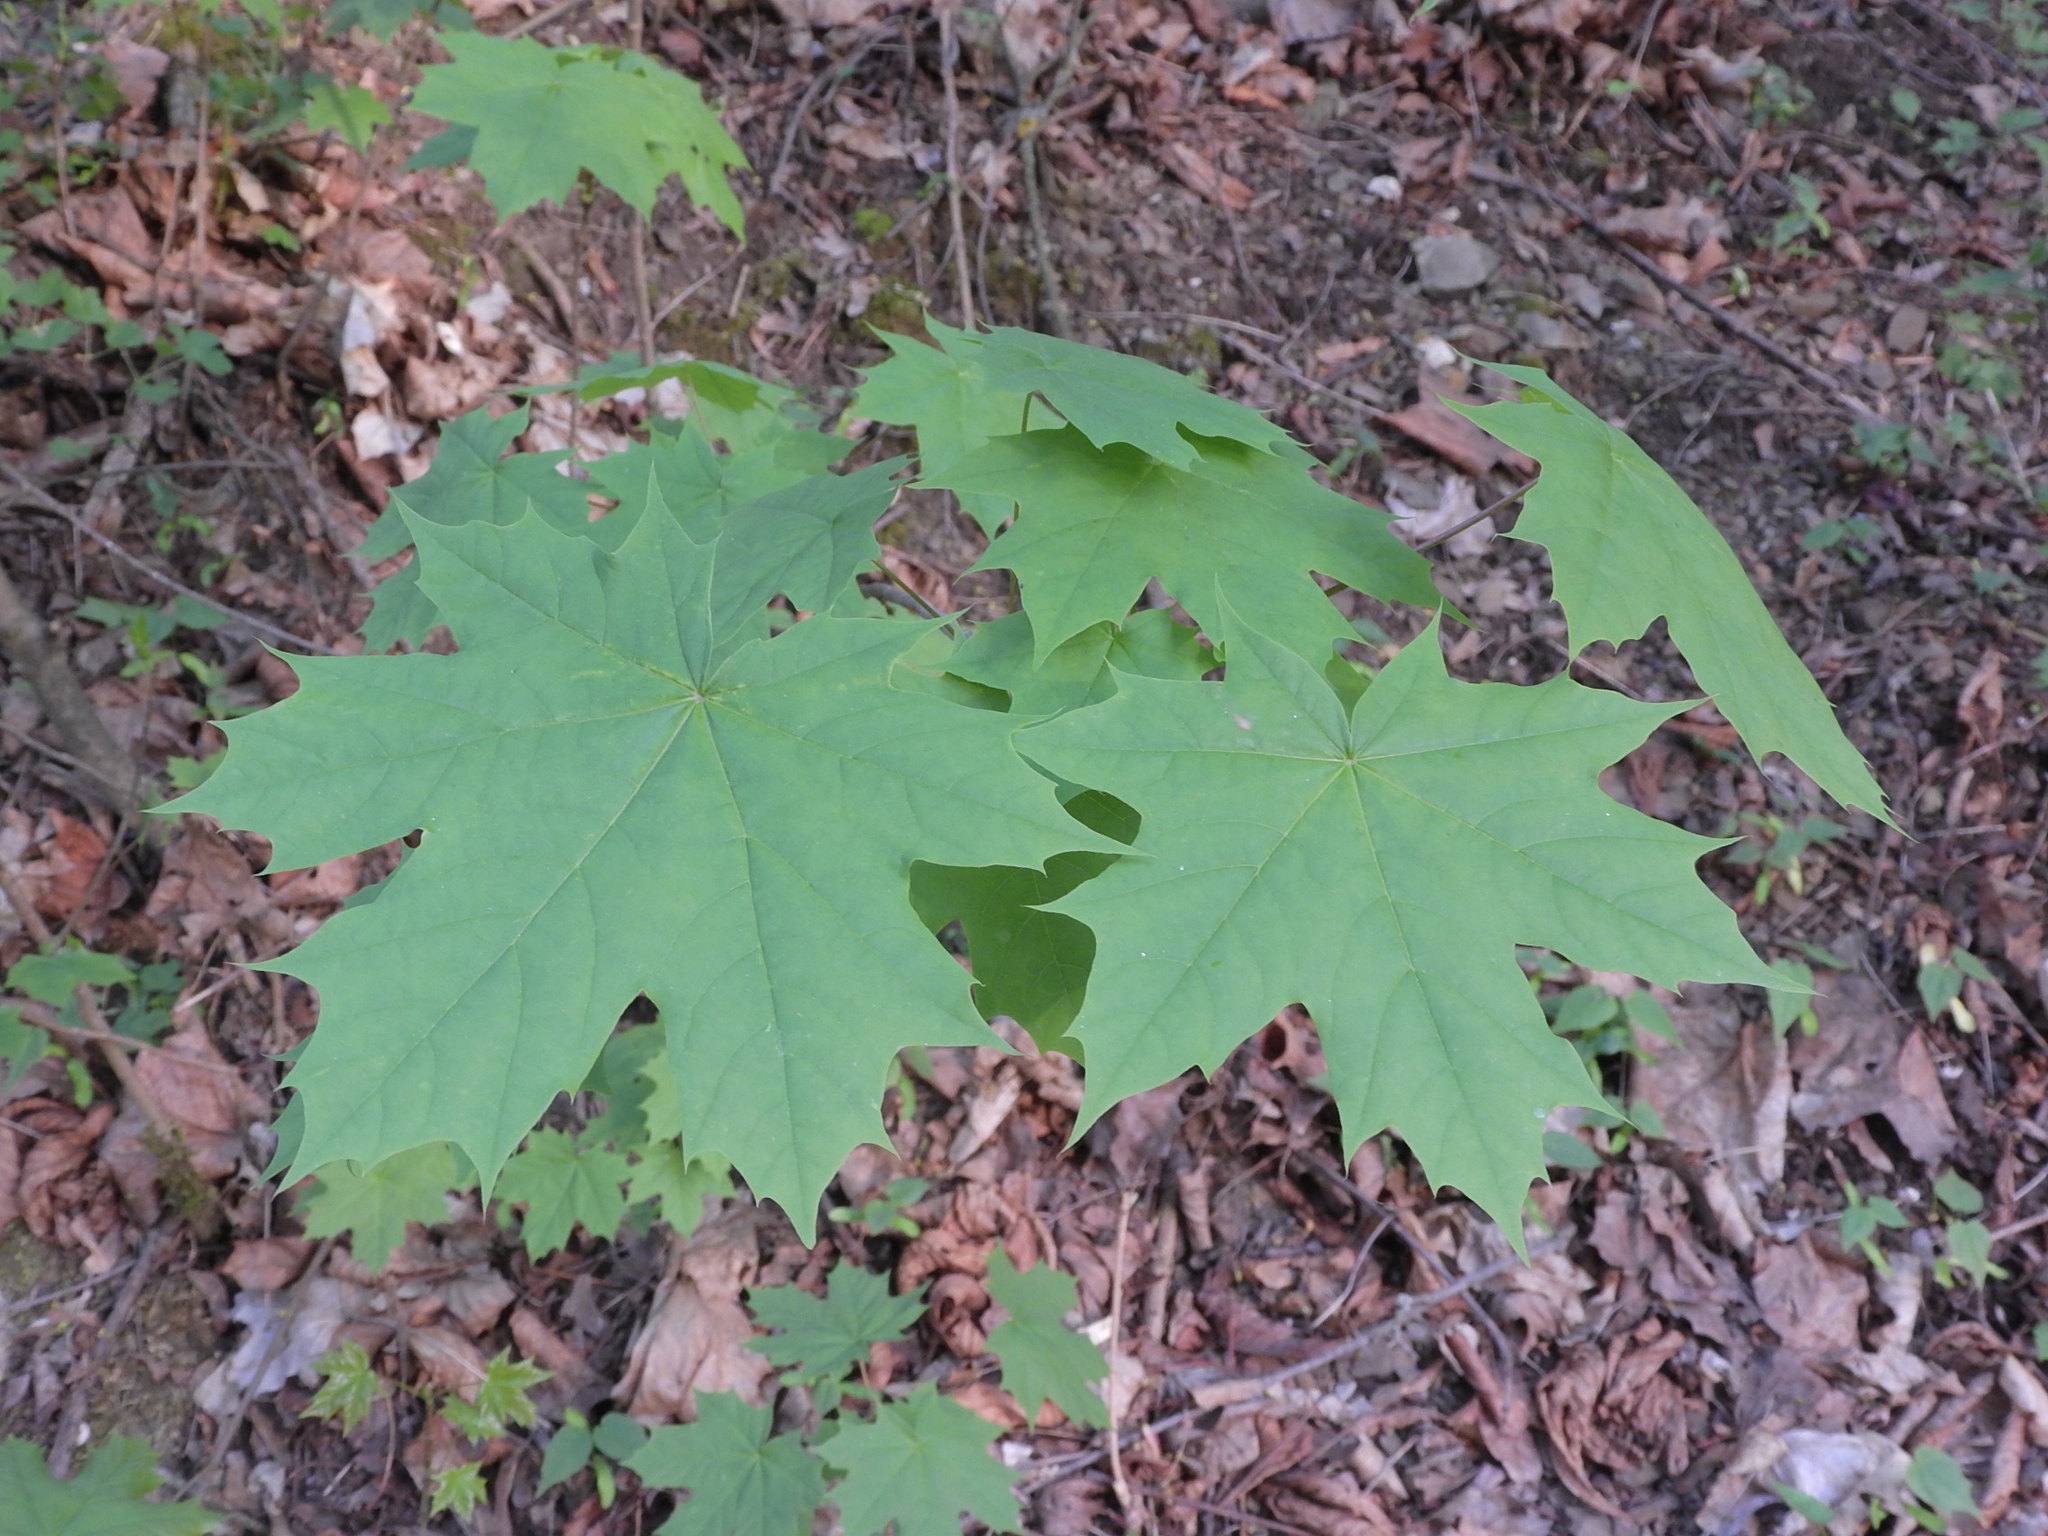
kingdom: Plantae
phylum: Tracheophyta
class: Magnoliopsida
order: Sapindales
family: Sapindaceae
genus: Acer
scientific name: Acer platanoides
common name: Norway maple
